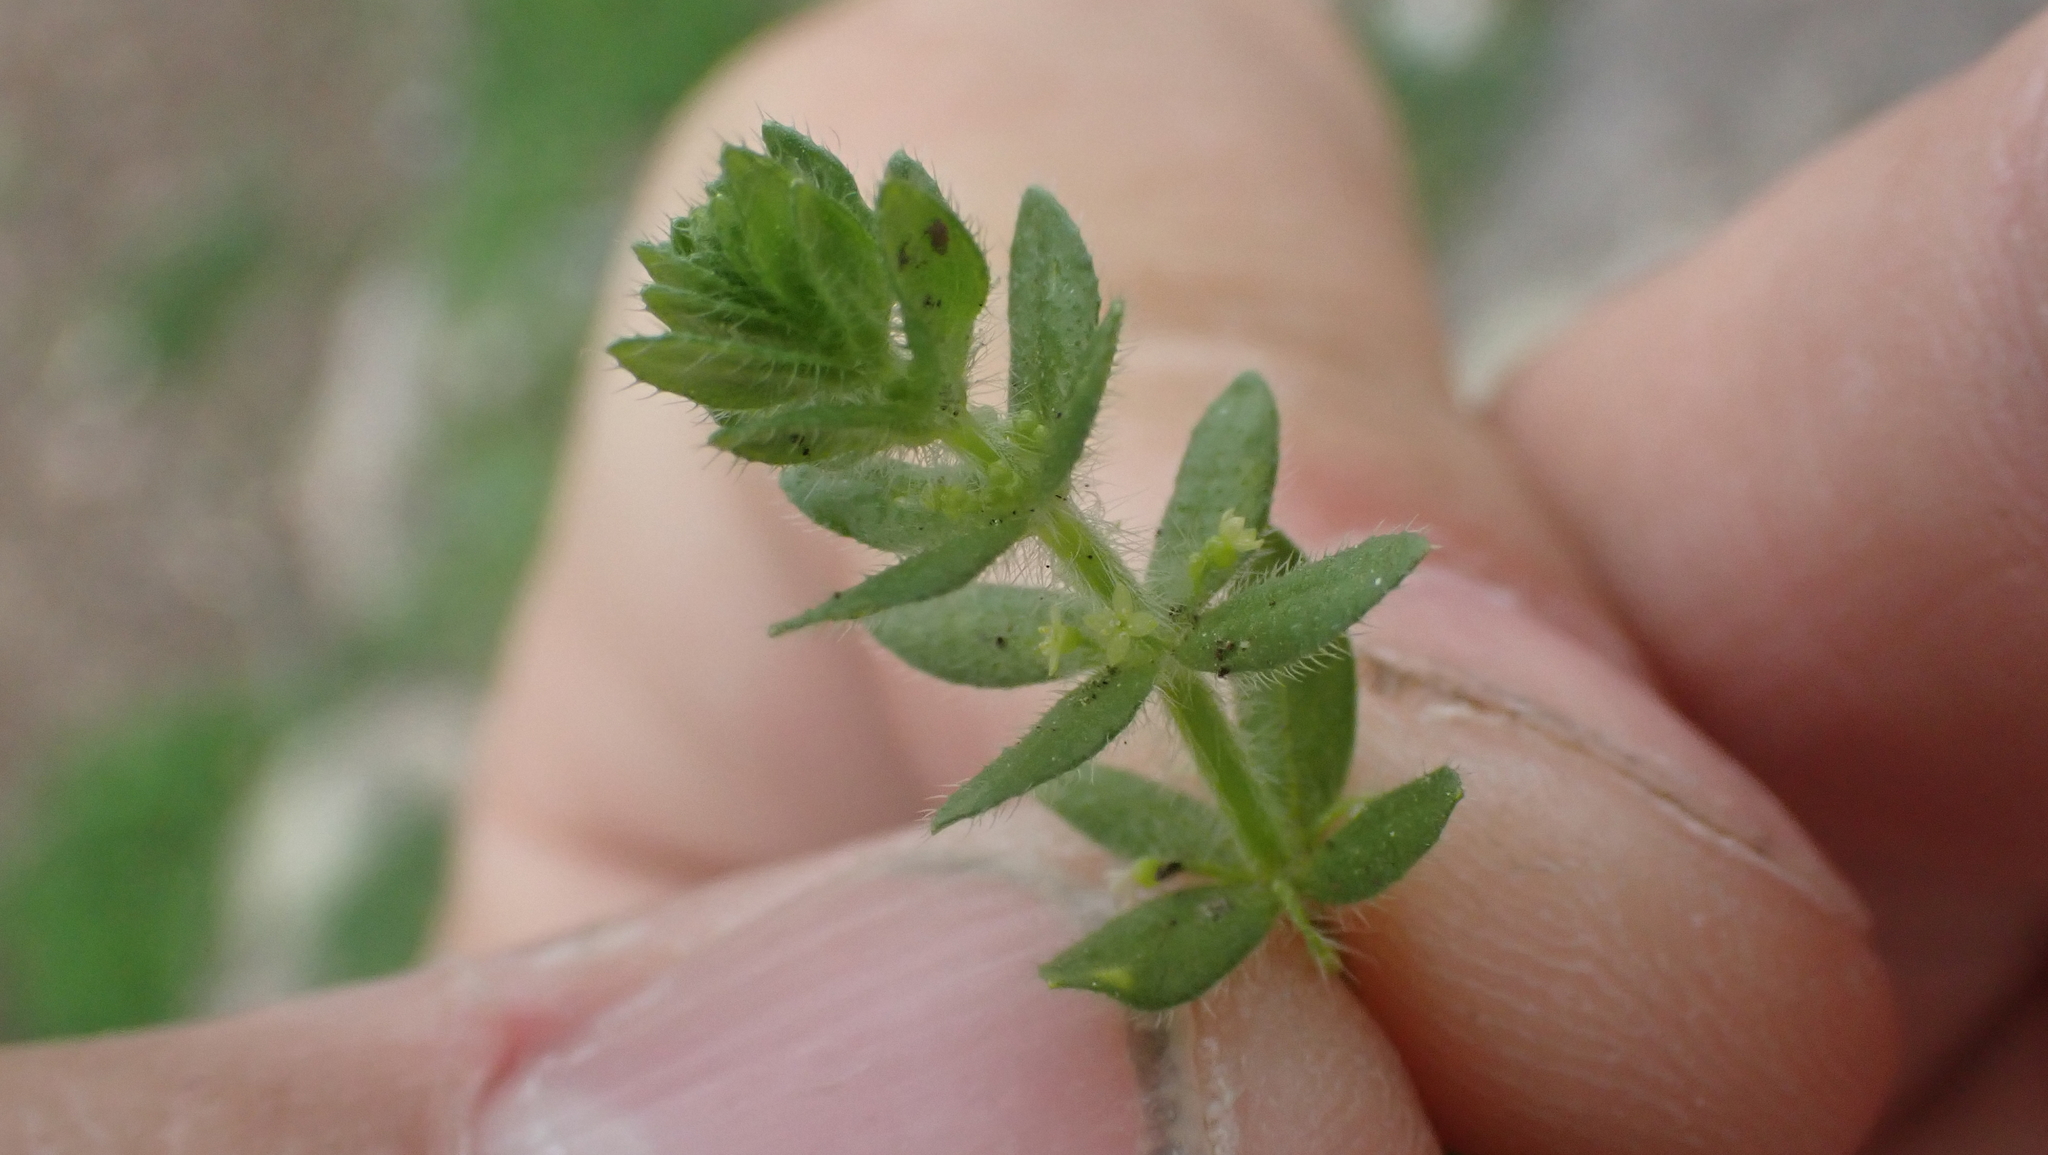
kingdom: Plantae
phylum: Tracheophyta
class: Magnoliopsida
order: Gentianales
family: Rubiaceae
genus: Cruciata
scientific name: Cruciata pedemontana
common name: Piedmont bedstraw
